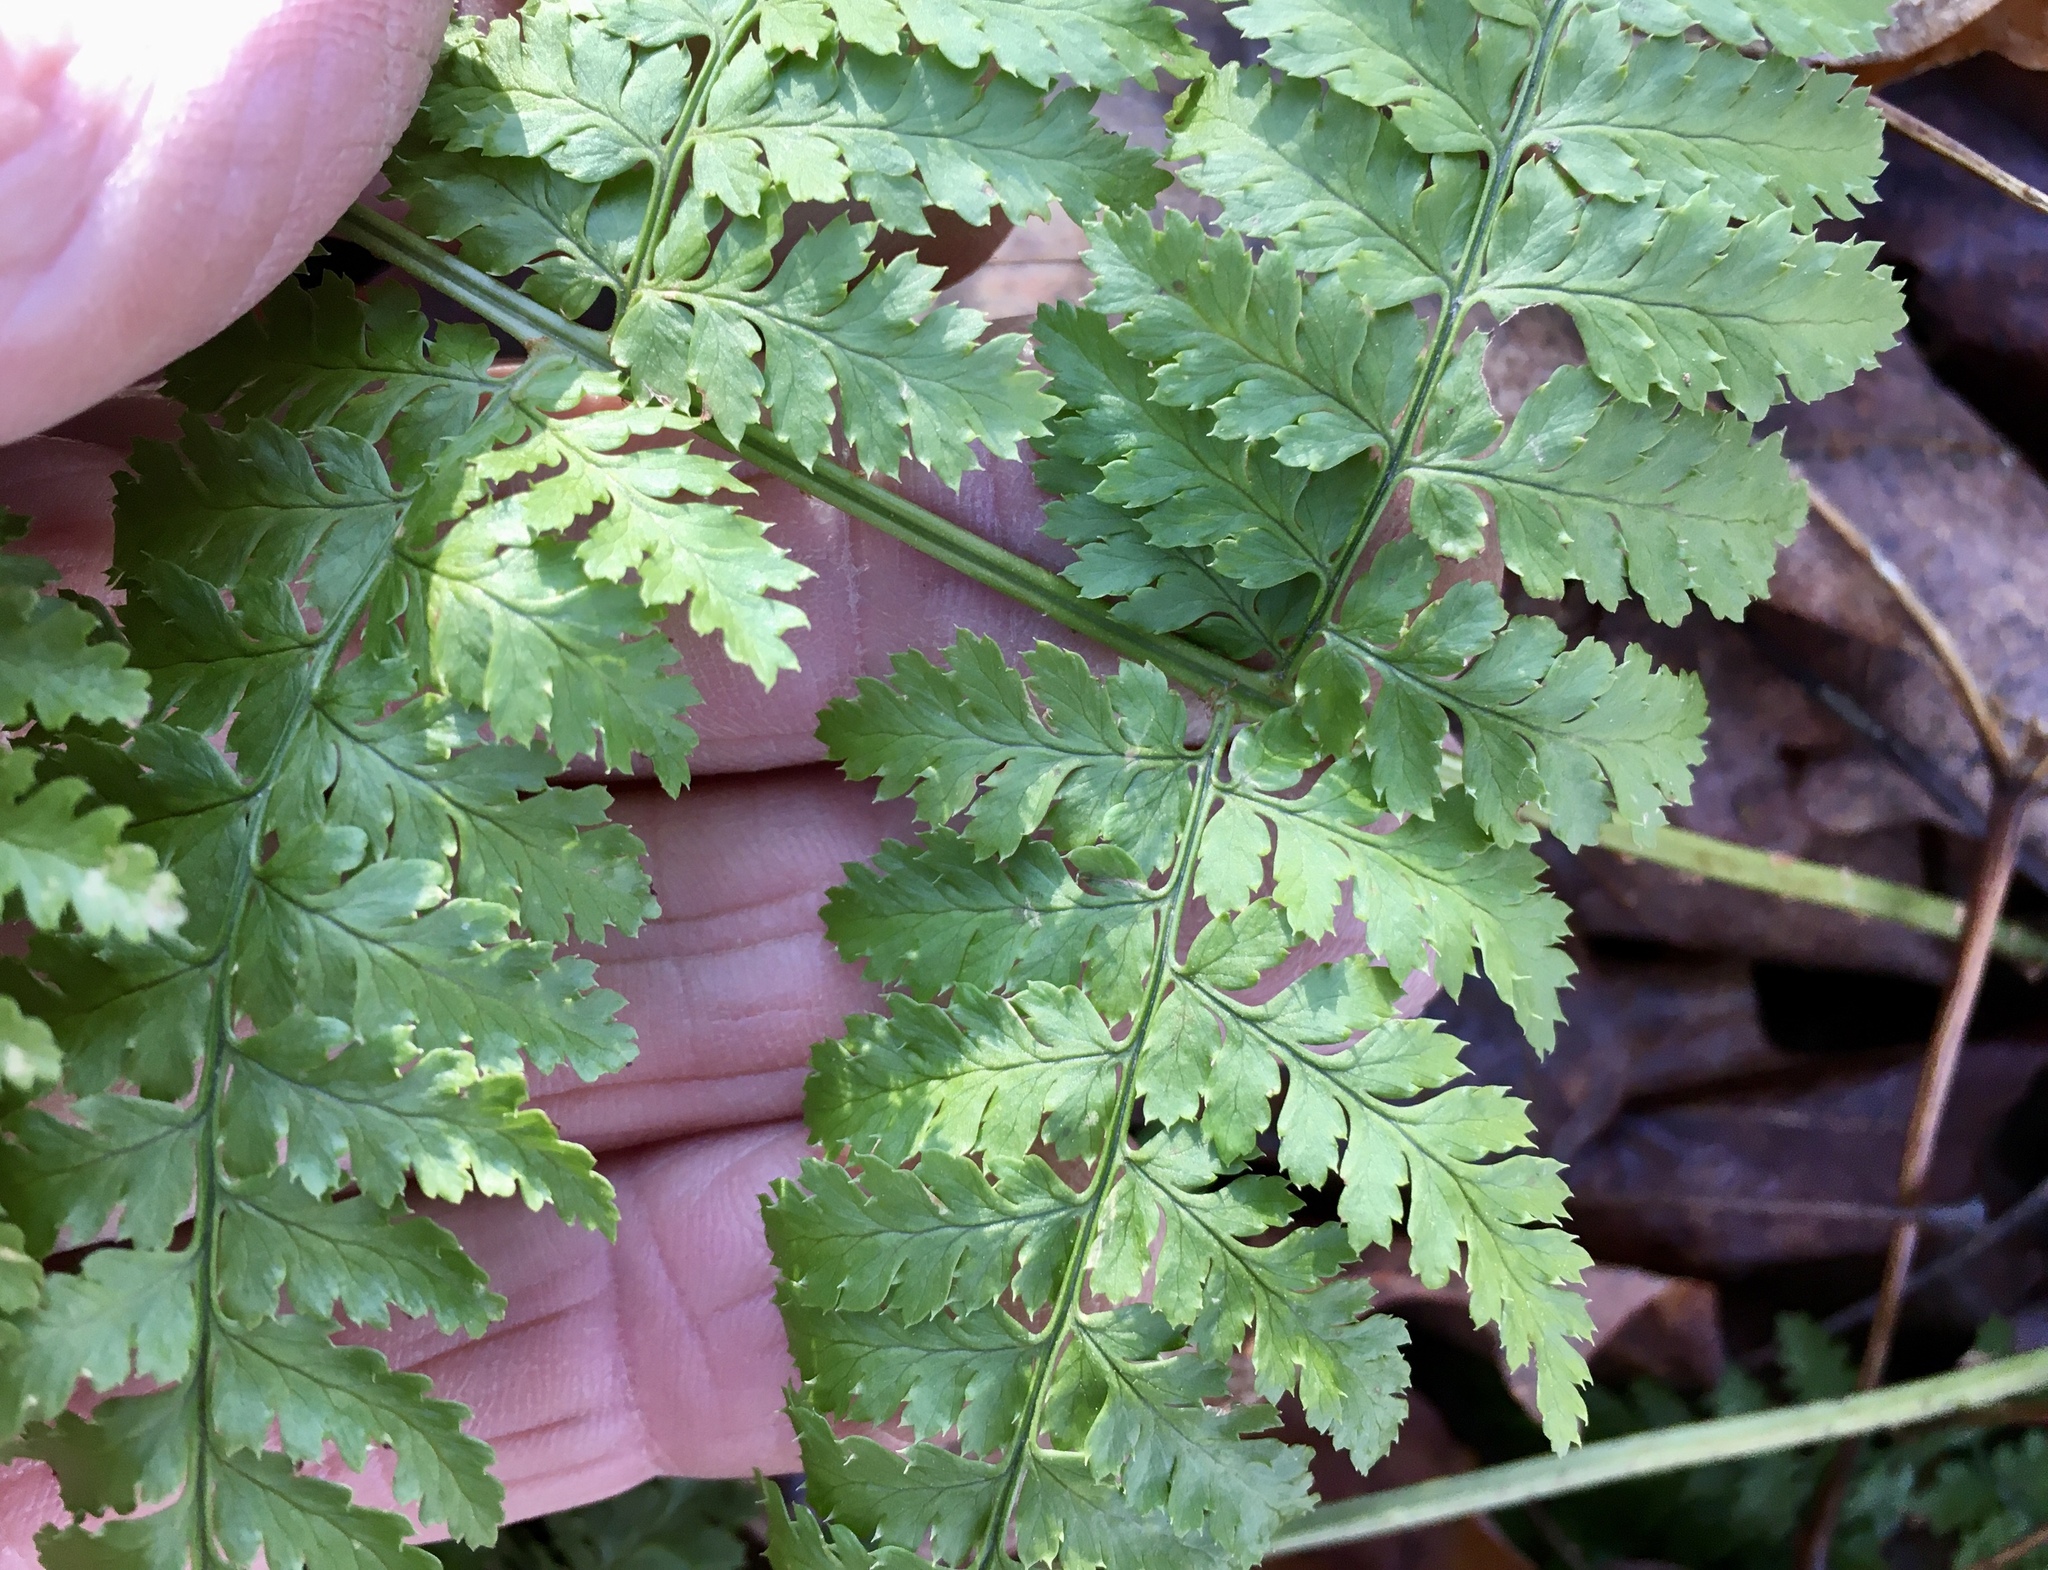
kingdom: Plantae
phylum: Tracheophyta
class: Polypodiopsida
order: Polypodiales
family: Dryopteridaceae
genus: Dryopteris
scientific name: Dryopteris intermedia
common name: Evergreen wood fern
